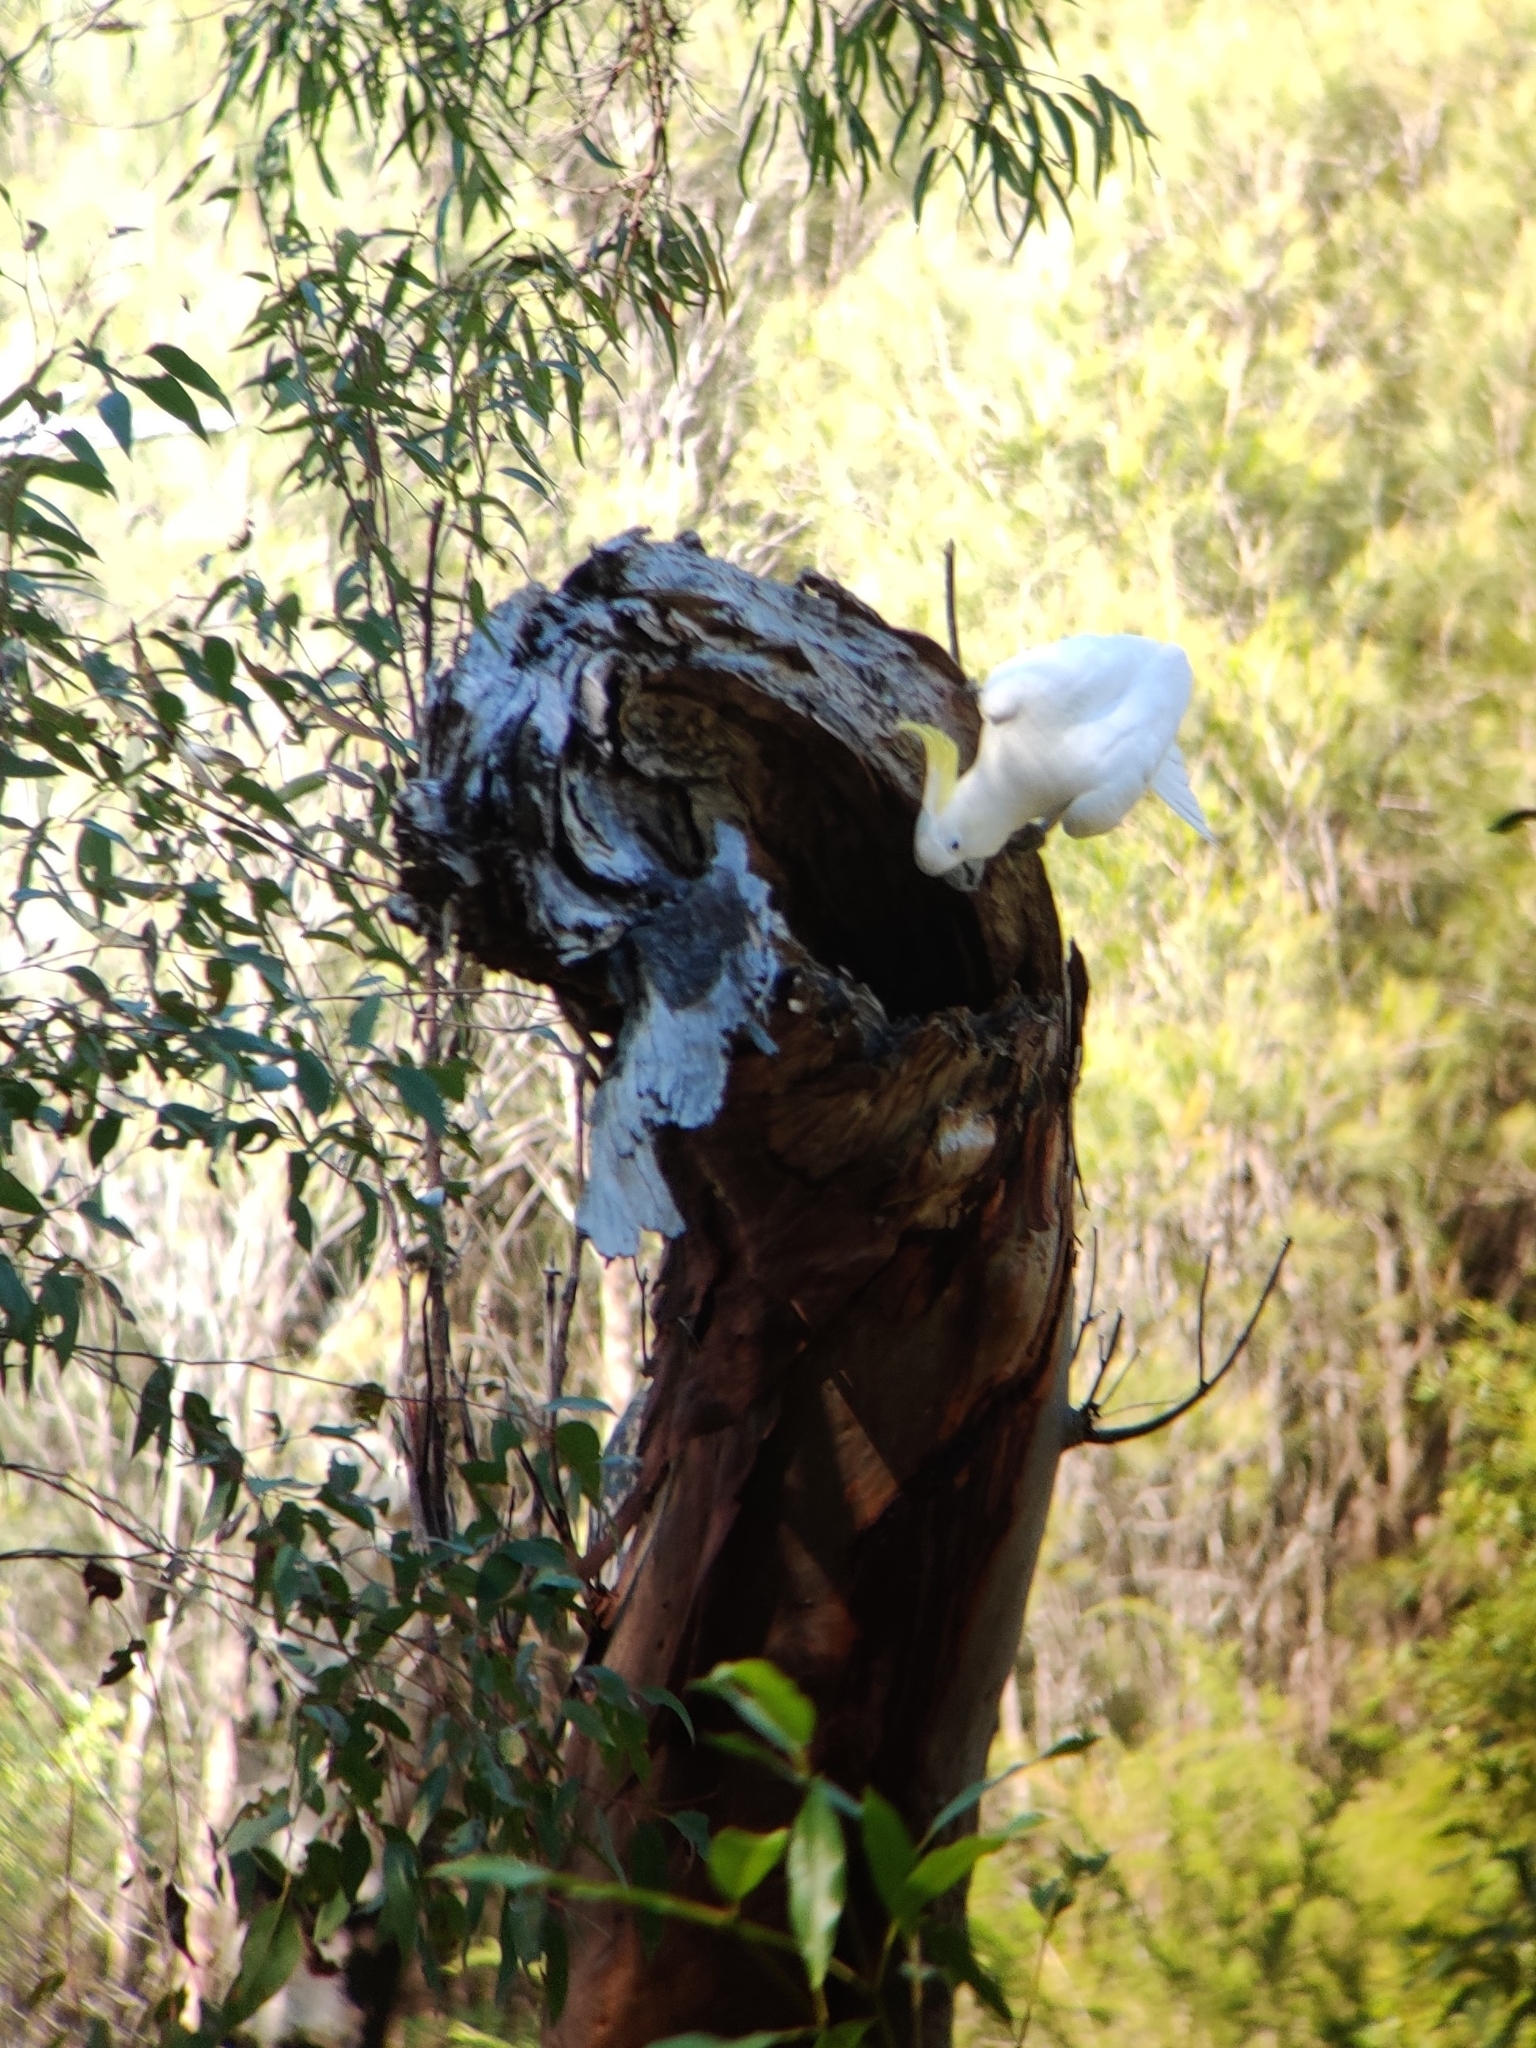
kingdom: Animalia
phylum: Chordata
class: Aves
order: Psittaciformes
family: Psittacidae
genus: Cacatua
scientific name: Cacatua galerita
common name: Sulphur-crested cockatoo
